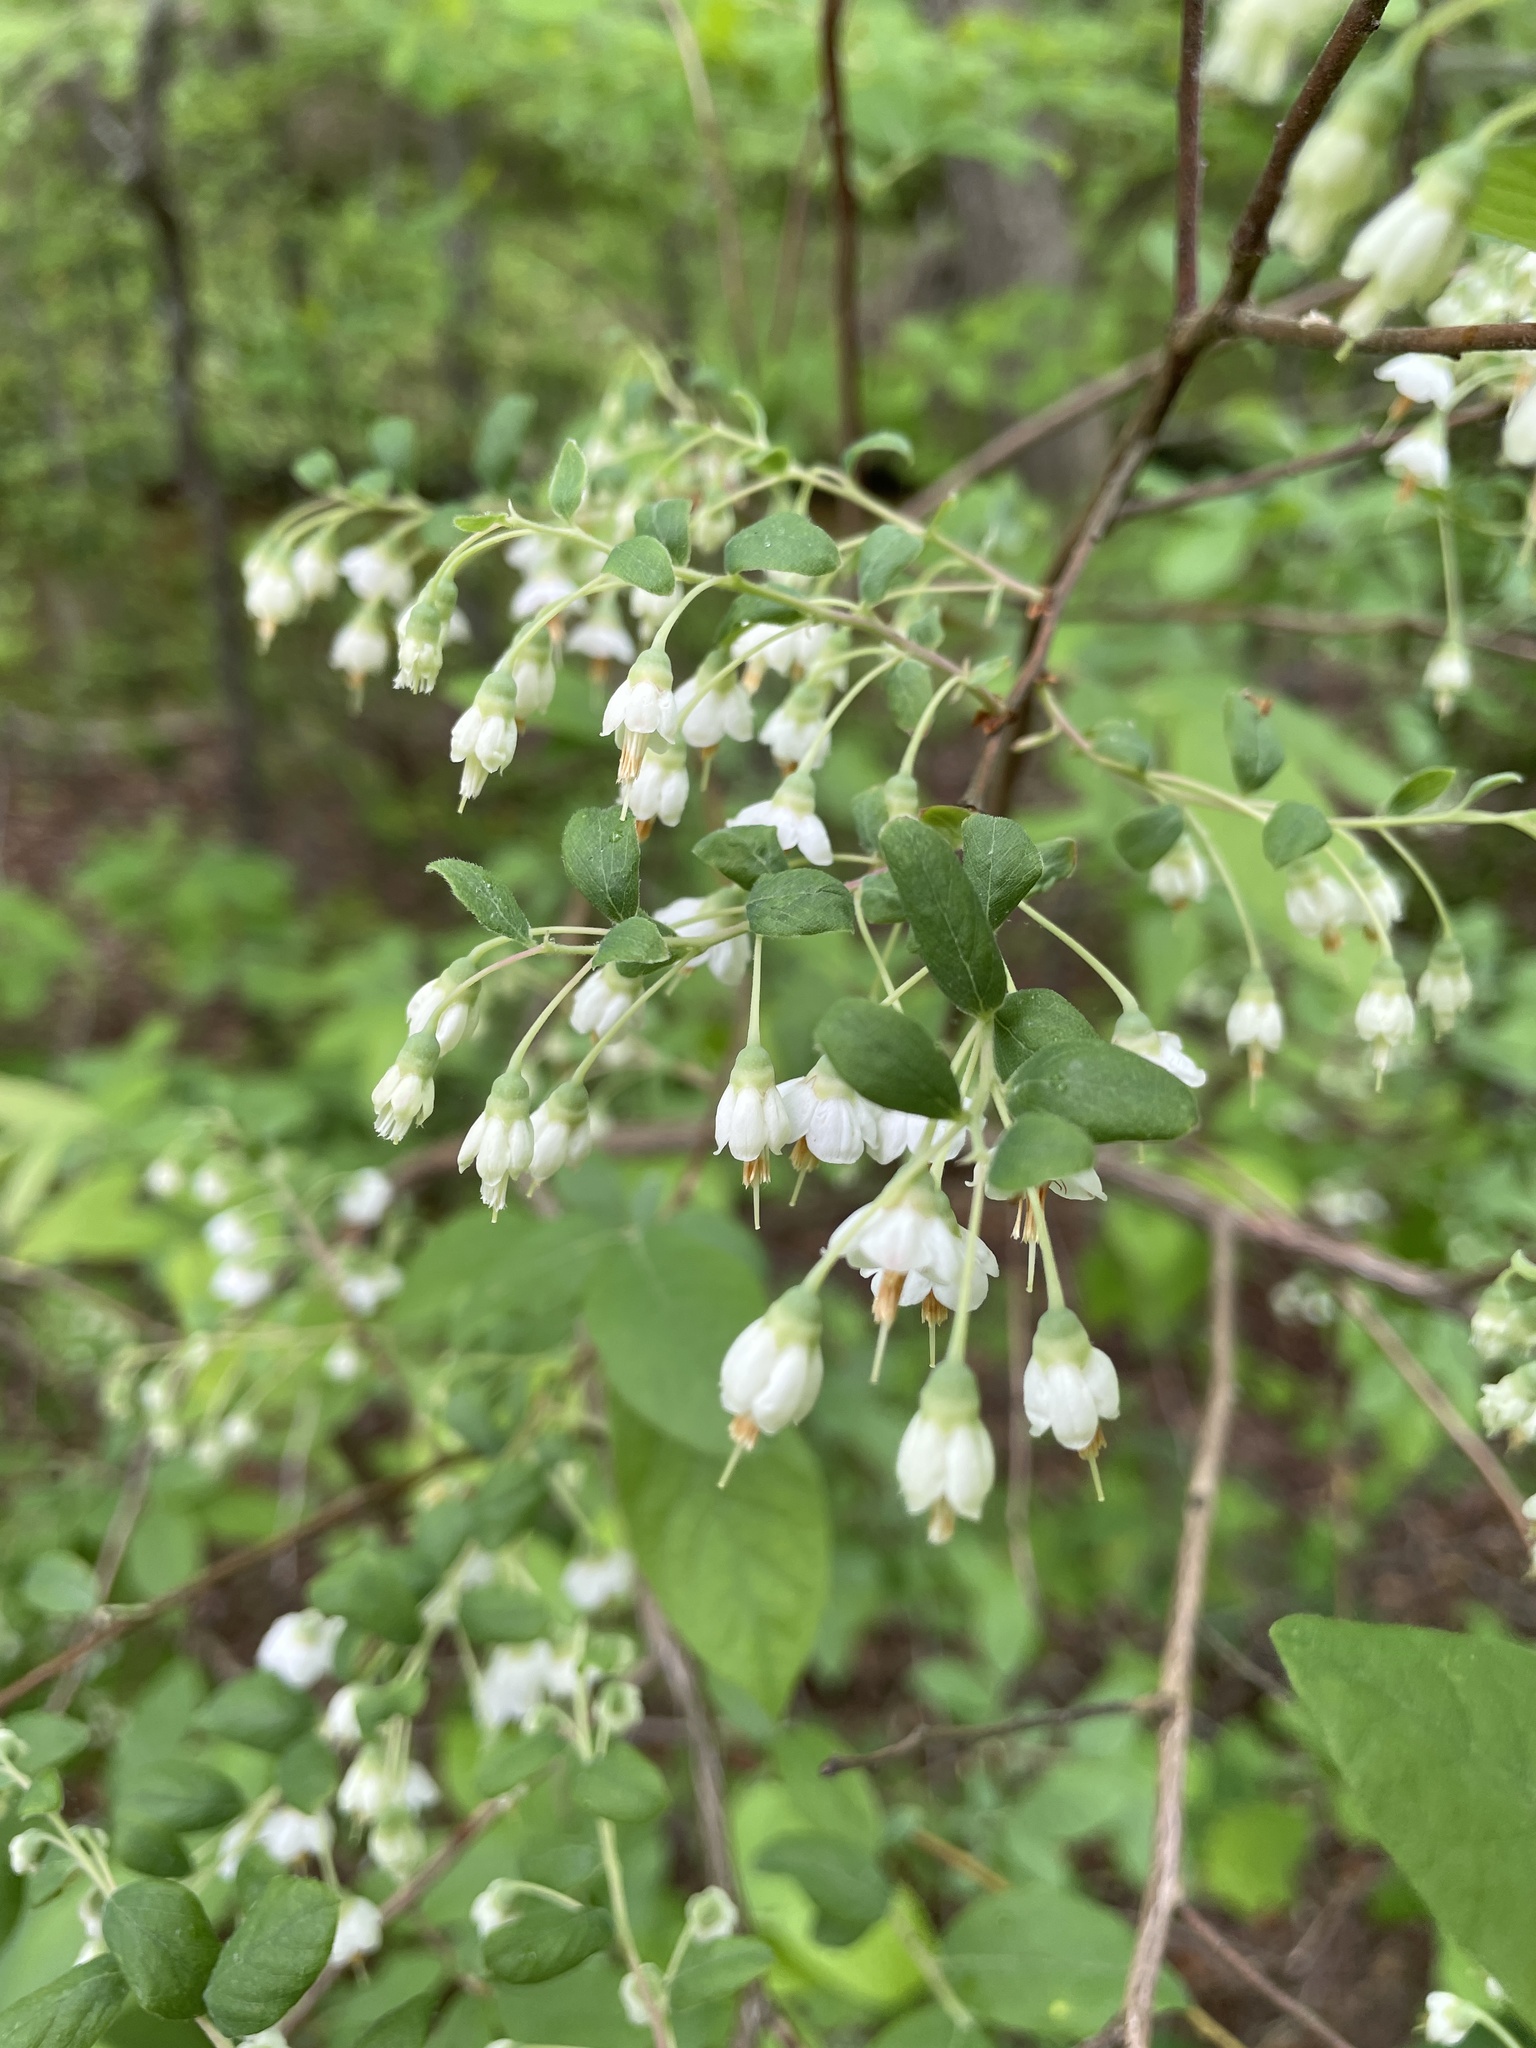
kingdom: Plantae
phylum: Tracheophyta
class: Magnoliopsida
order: Ericales
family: Ericaceae
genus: Vaccinium
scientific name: Vaccinium stamineum
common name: Deerberry
